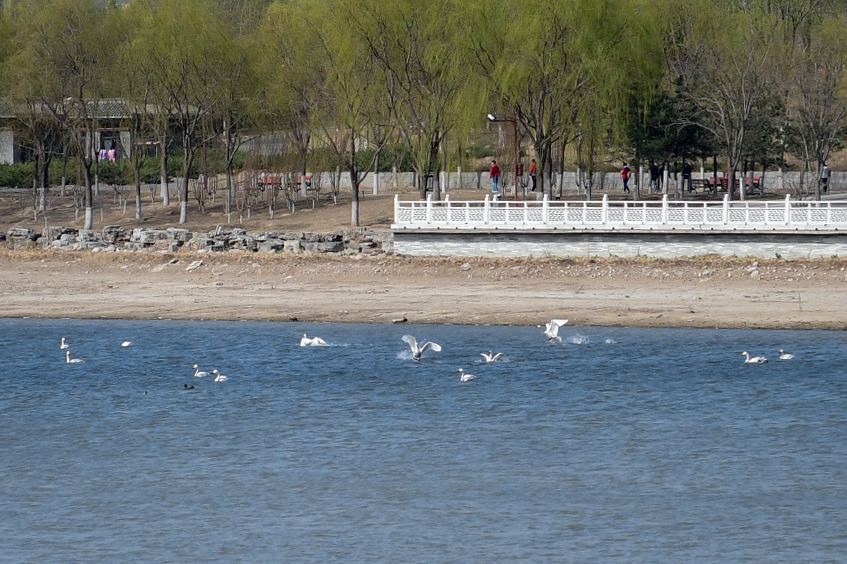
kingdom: Animalia
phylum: Chordata
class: Aves
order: Anseriformes
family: Anatidae
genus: Cygnus
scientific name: Cygnus
